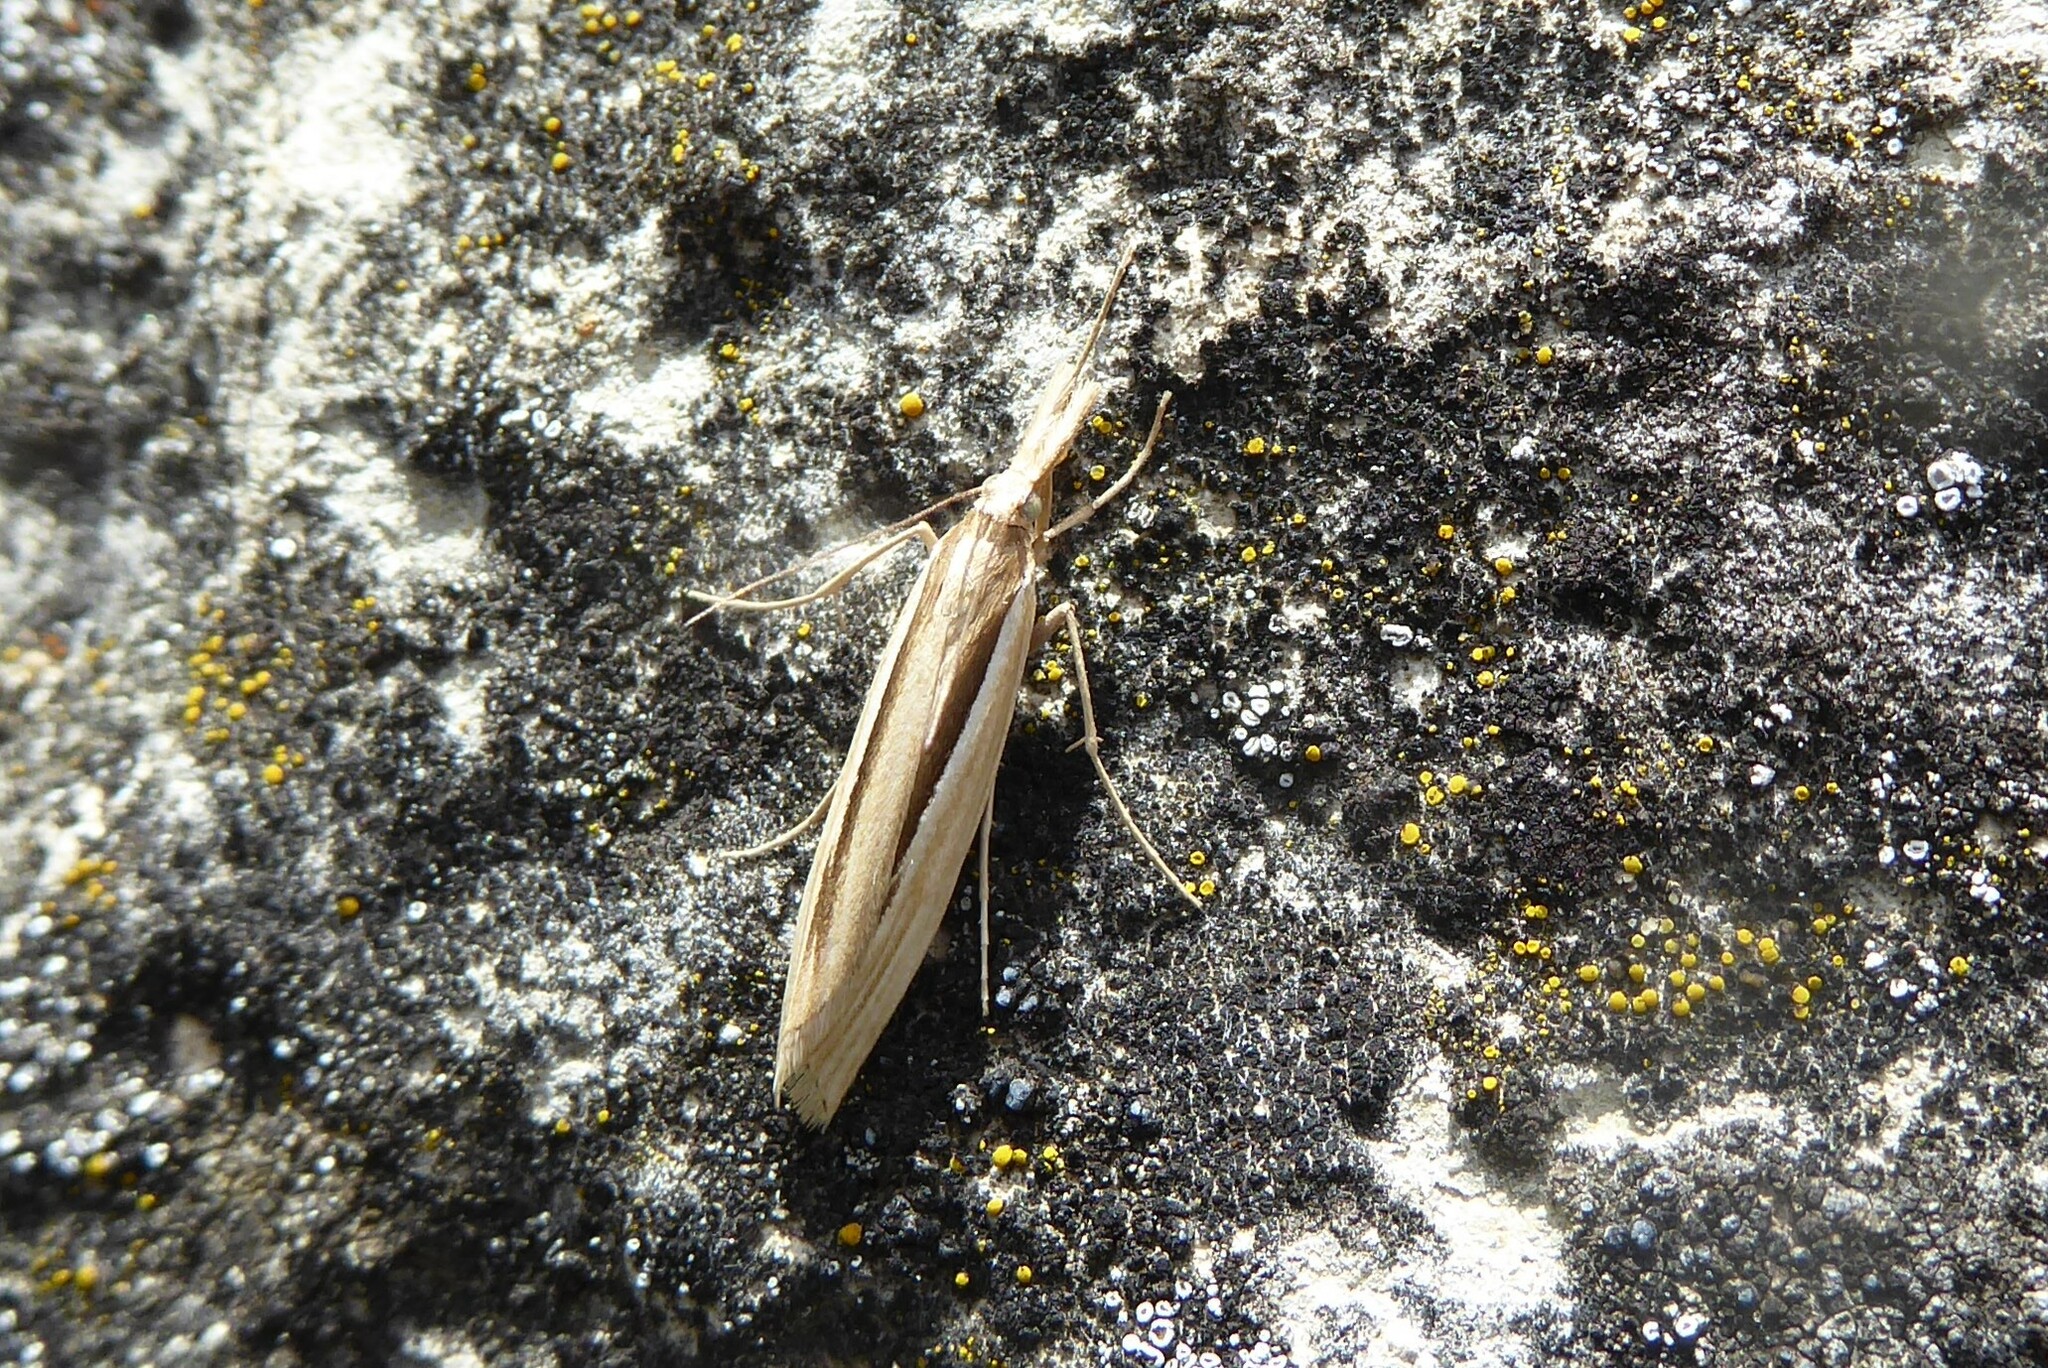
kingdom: Animalia
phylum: Arthropoda
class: Insecta
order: Lepidoptera
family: Crambidae
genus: Orocrambus
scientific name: Orocrambus ramosellus
